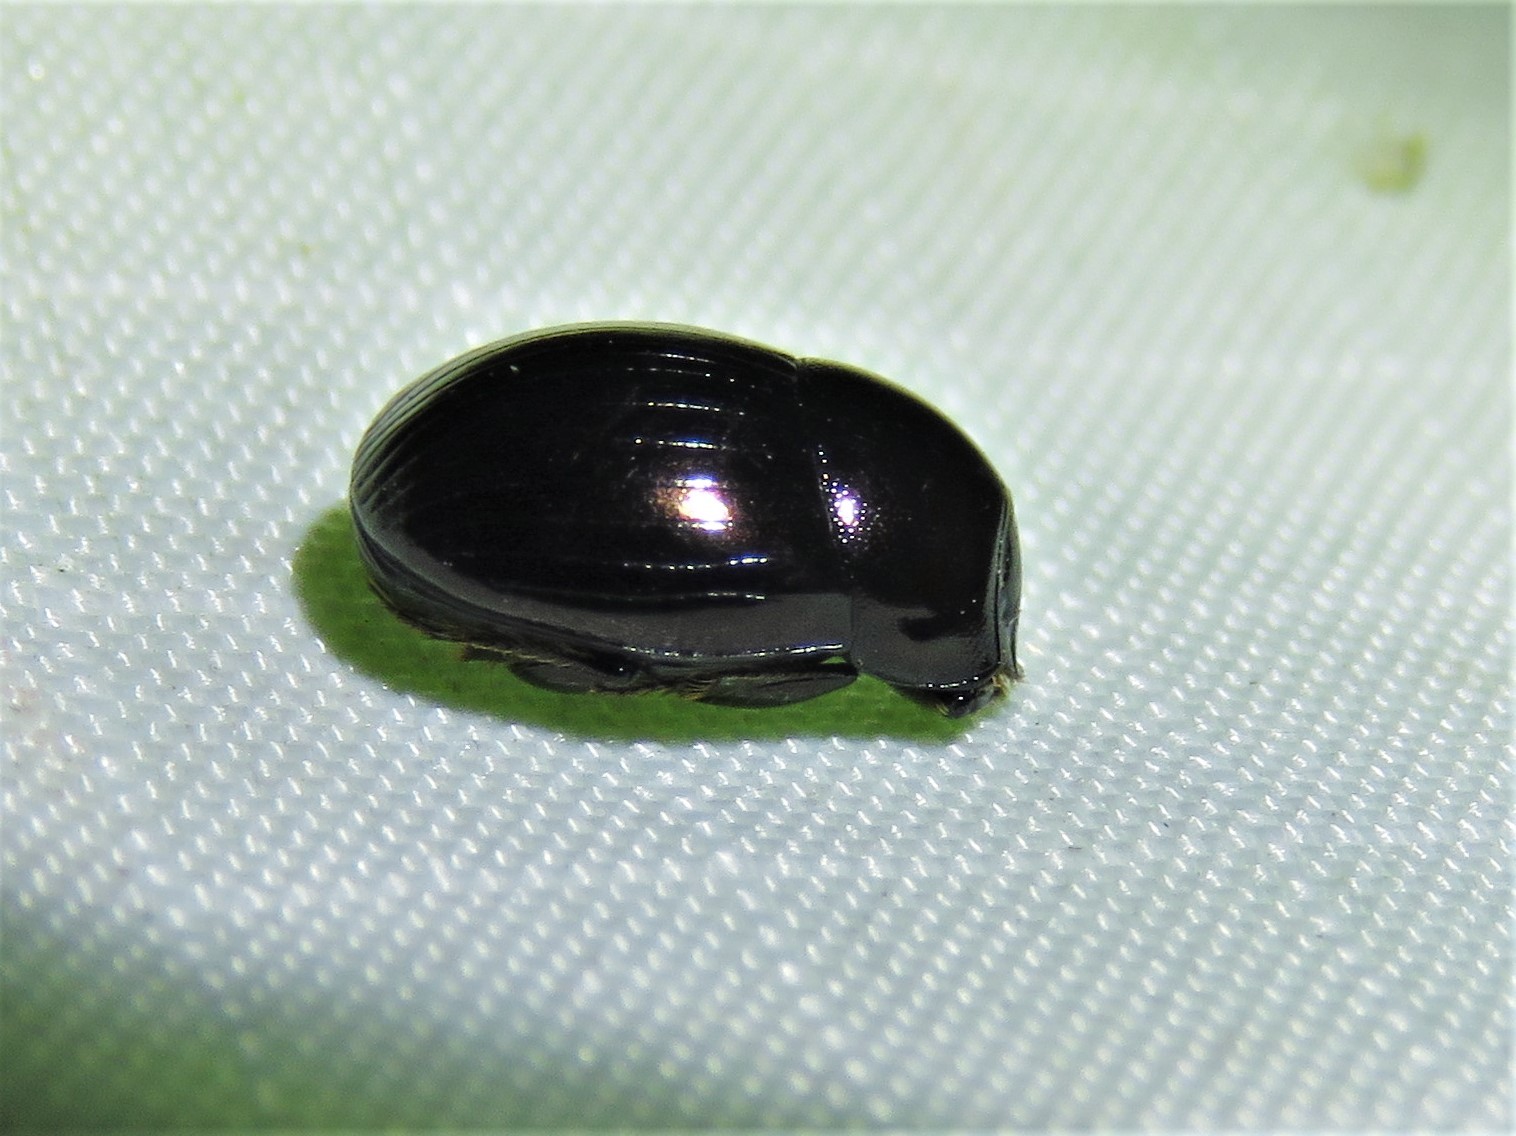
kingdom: Animalia
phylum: Arthropoda
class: Insecta
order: Coleoptera
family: Scarabaeidae
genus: Ateuchus
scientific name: Ateuchus histeroides
